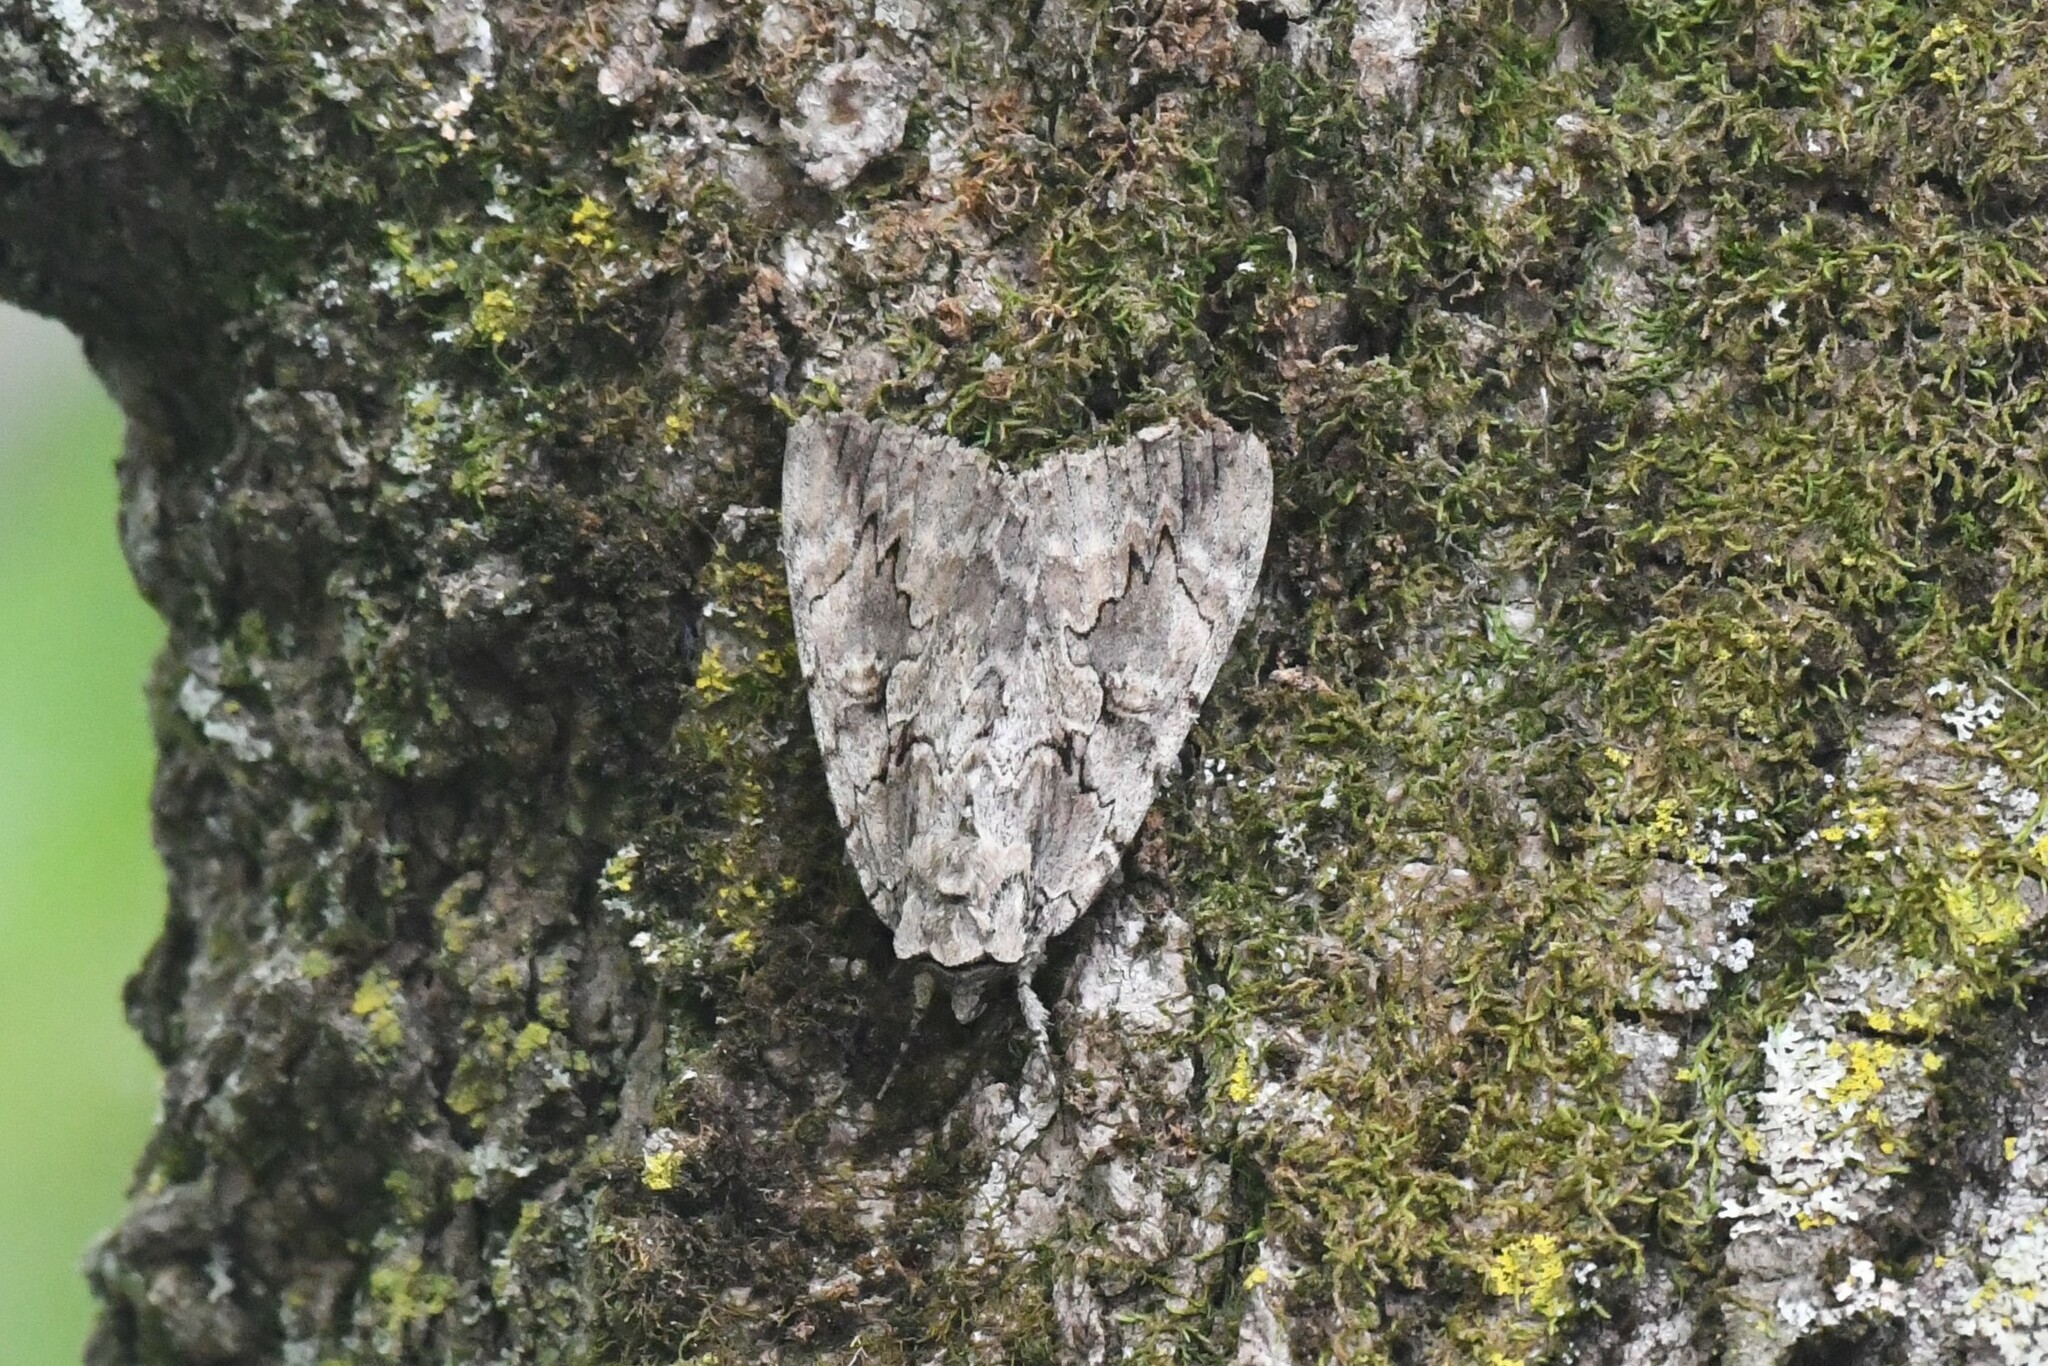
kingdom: Animalia
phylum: Arthropoda
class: Insecta
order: Lepidoptera
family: Erebidae
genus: Catocala
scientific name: Catocala amatrix
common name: Sweetheart underwing
